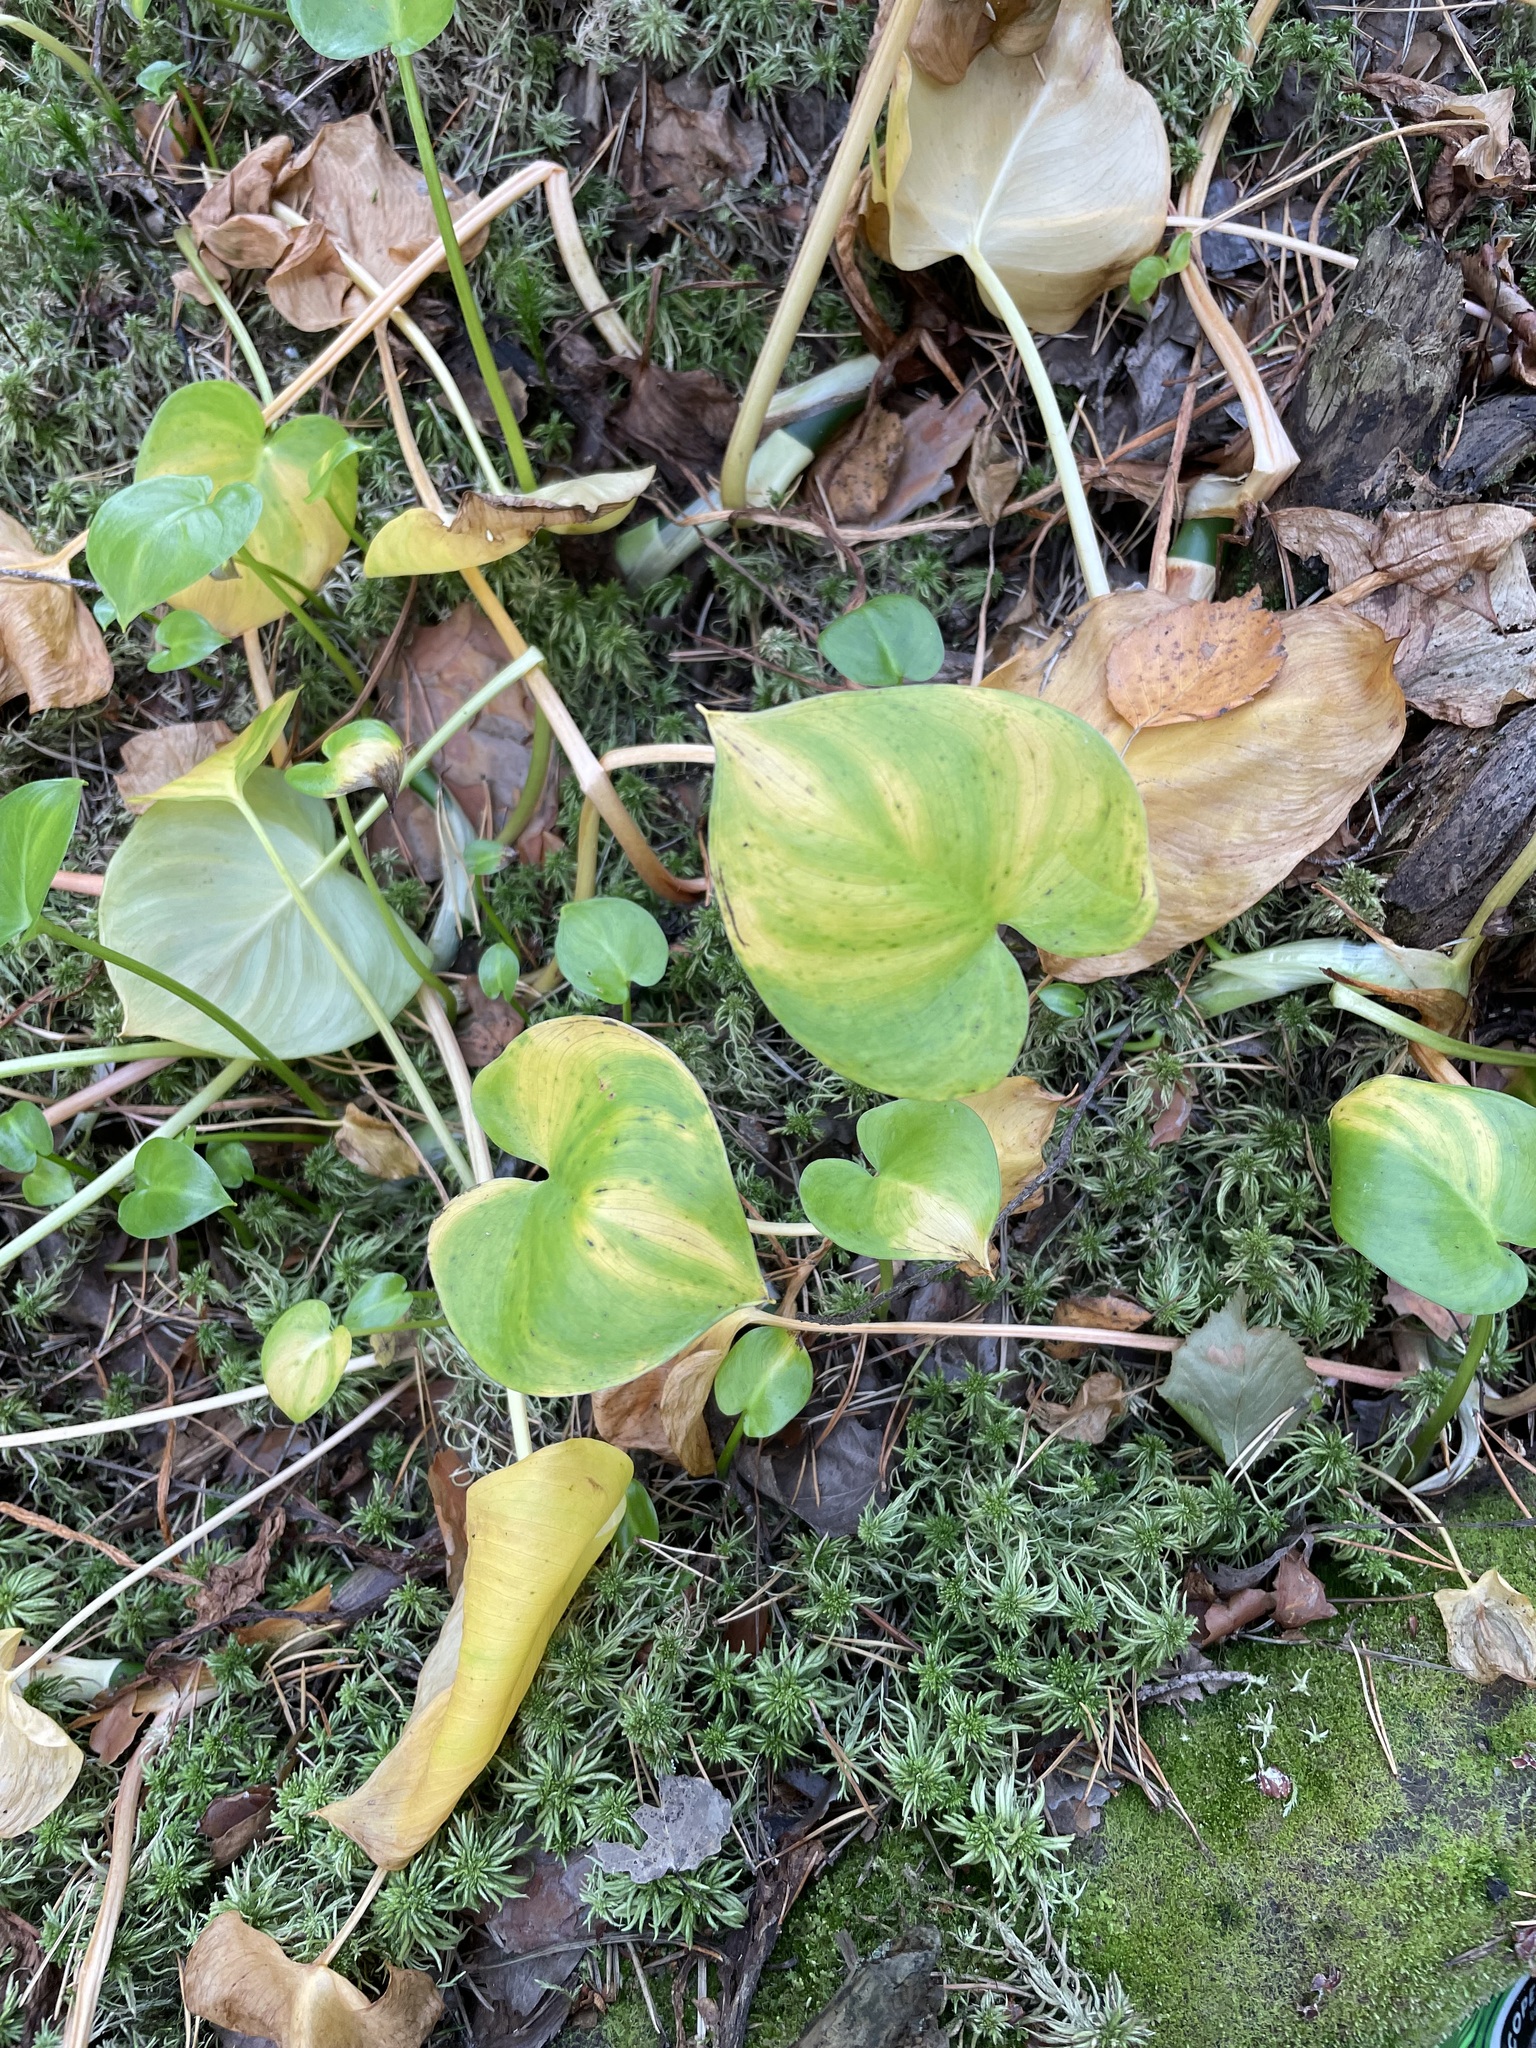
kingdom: Plantae
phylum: Tracheophyta
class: Liliopsida
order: Alismatales
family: Araceae
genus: Calla
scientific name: Calla palustris
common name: Bog arum
